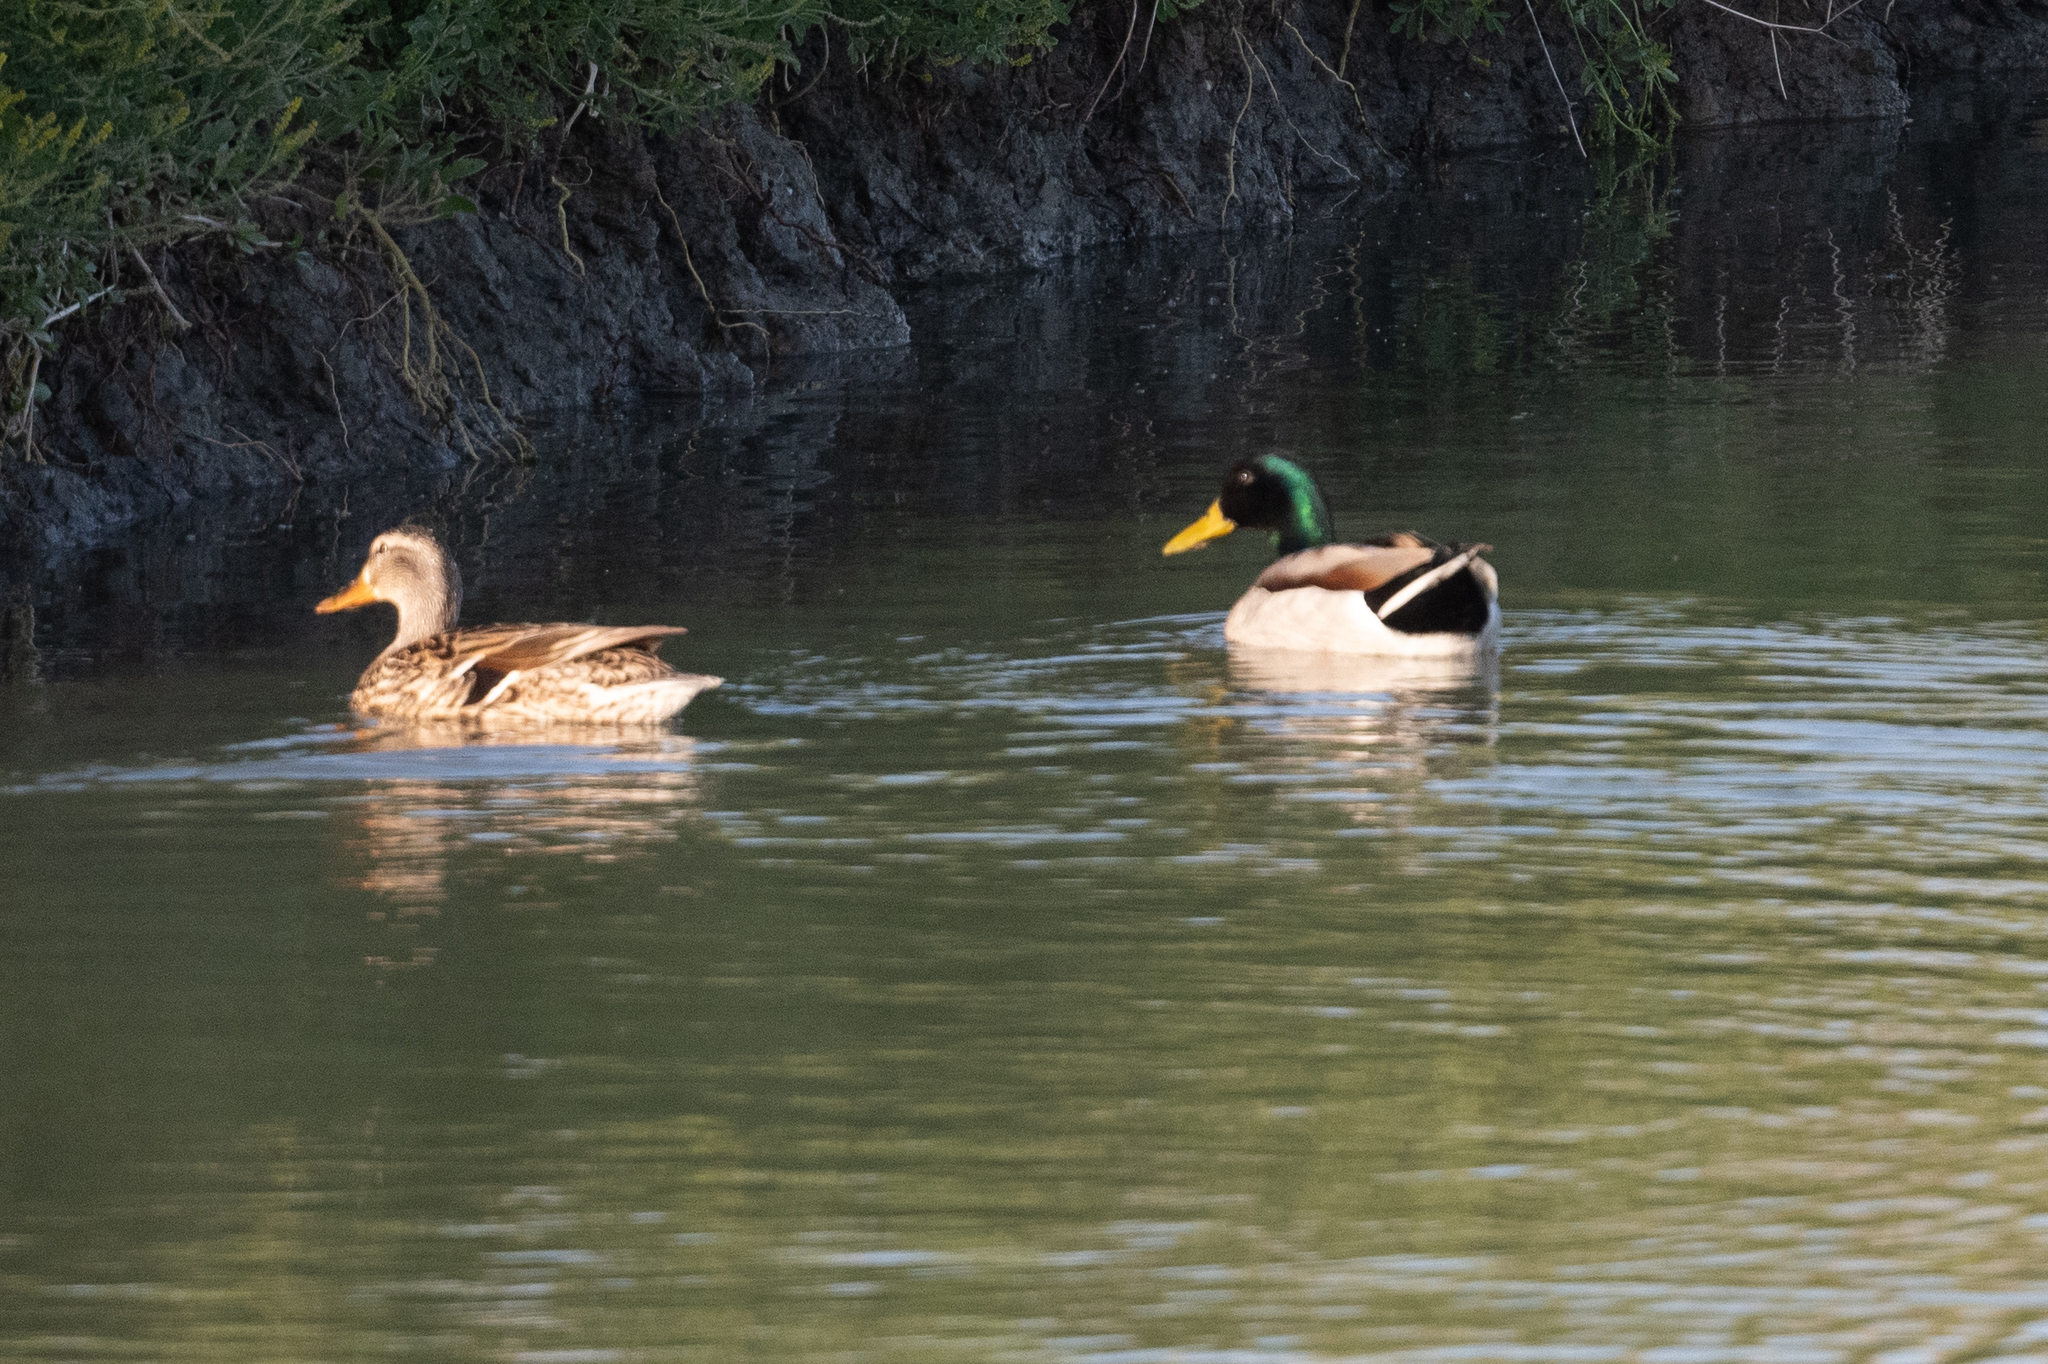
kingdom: Animalia
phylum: Chordata
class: Aves
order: Anseriformes
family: Anatidae
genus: Anas
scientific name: Anas platyrhynchos
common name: Mallard
